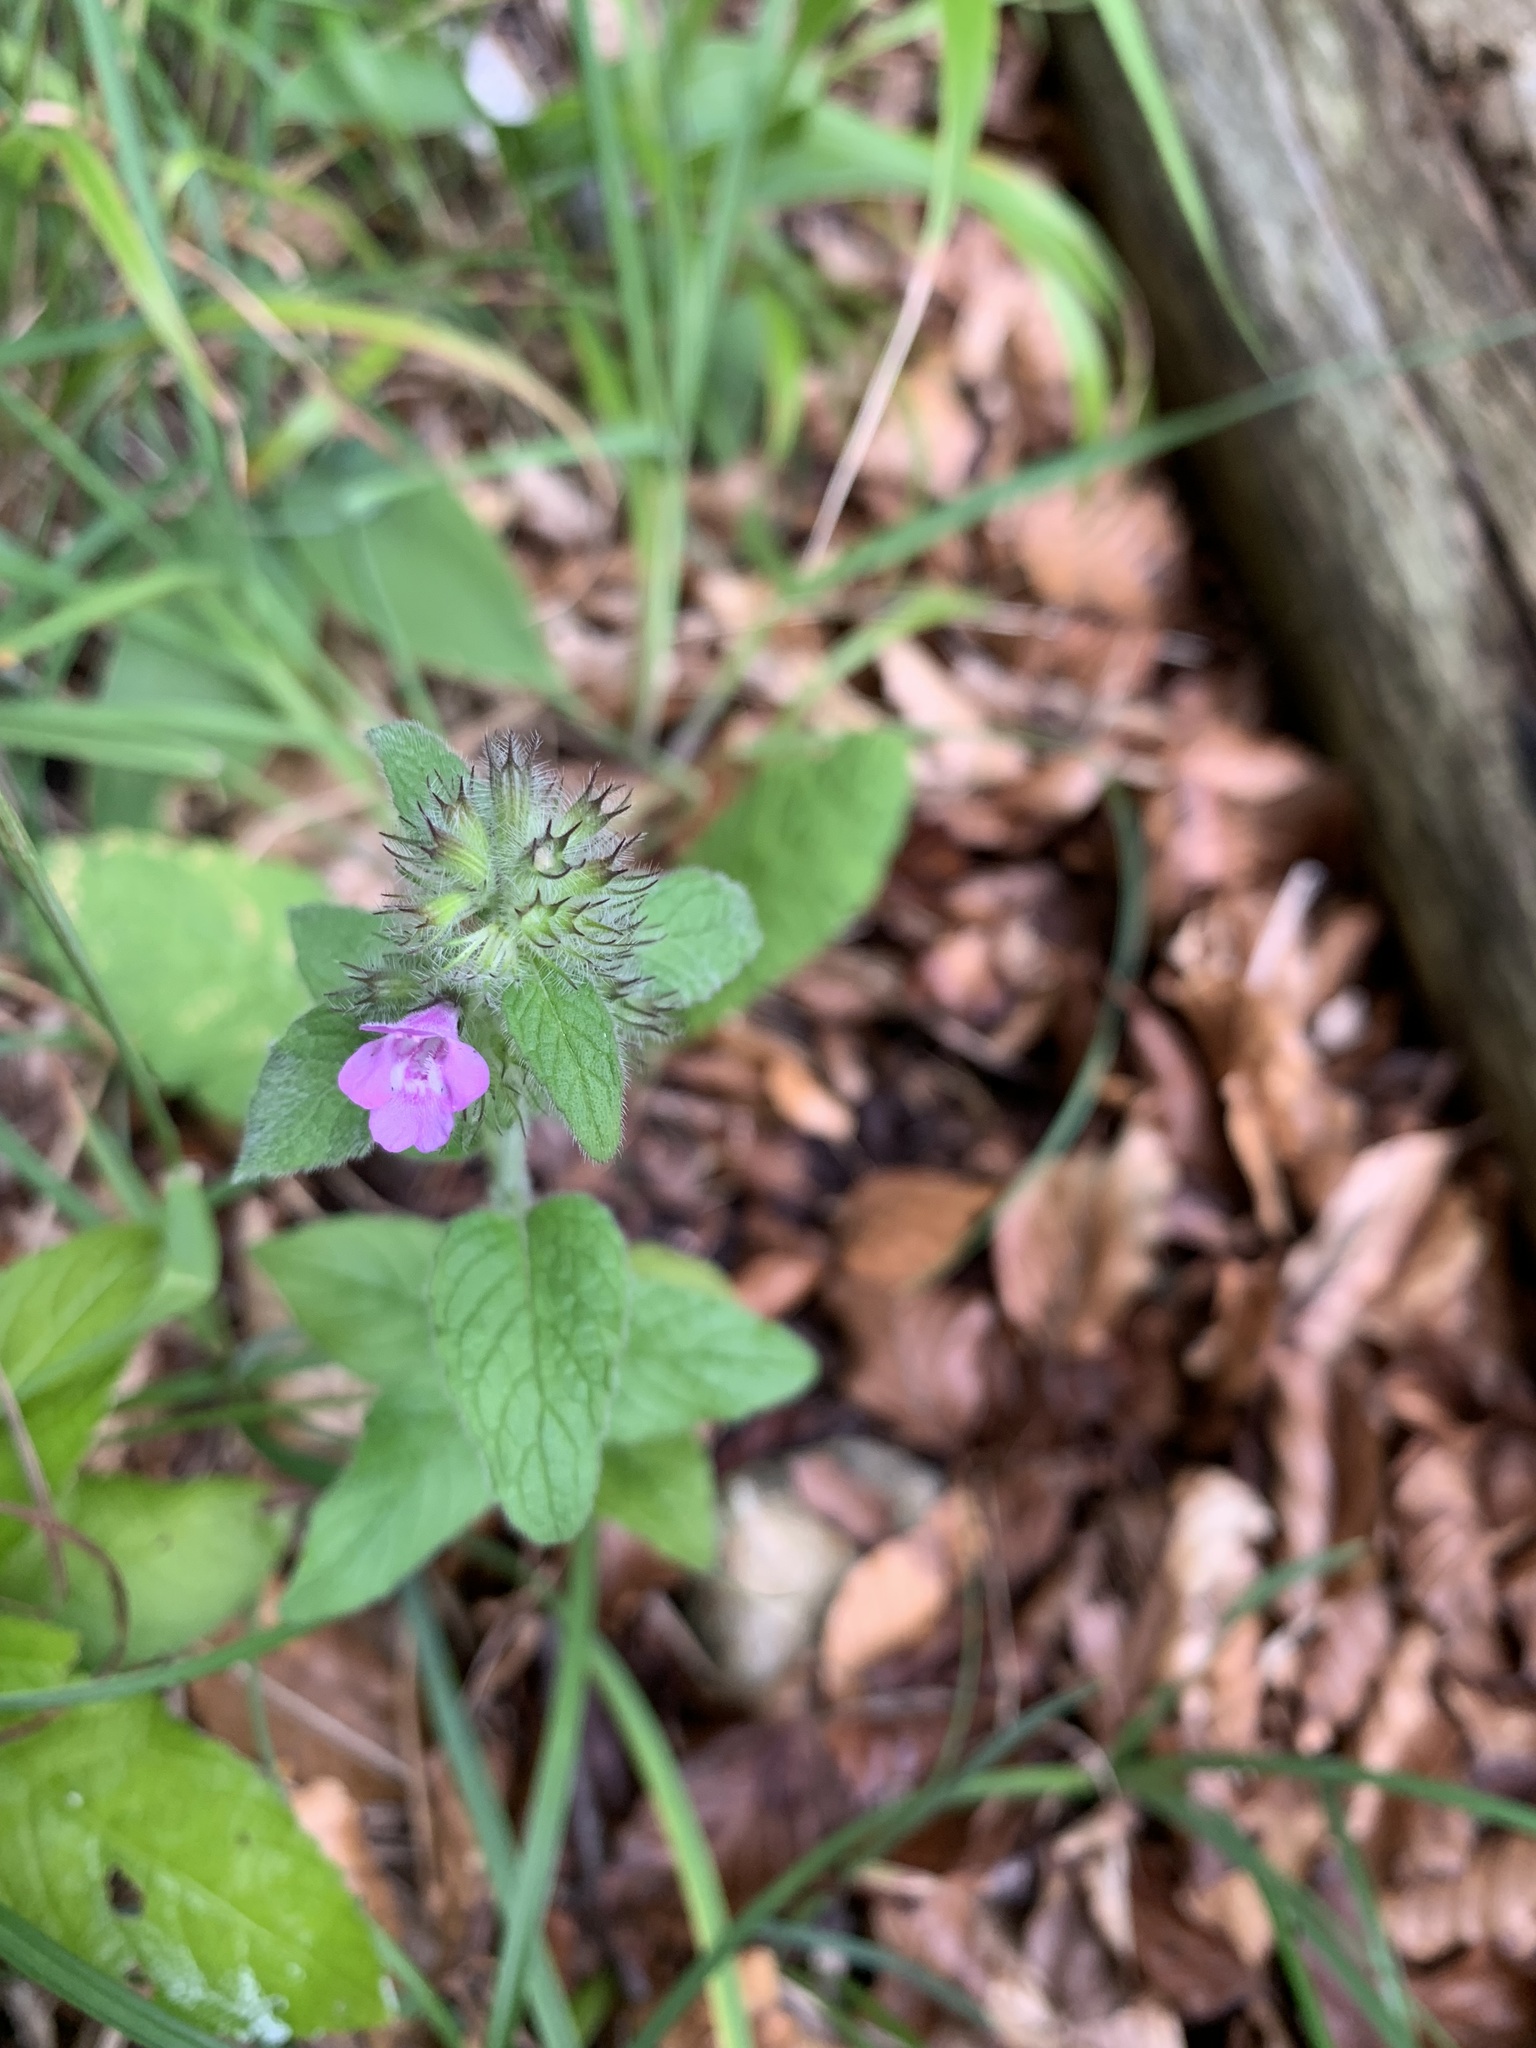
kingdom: Plantae
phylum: Tracheophyta
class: Magnoliopsida
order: Lamiales
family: Lamiaceae
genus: Clinopodium
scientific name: Clinopodium vulgare
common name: Wild basil
